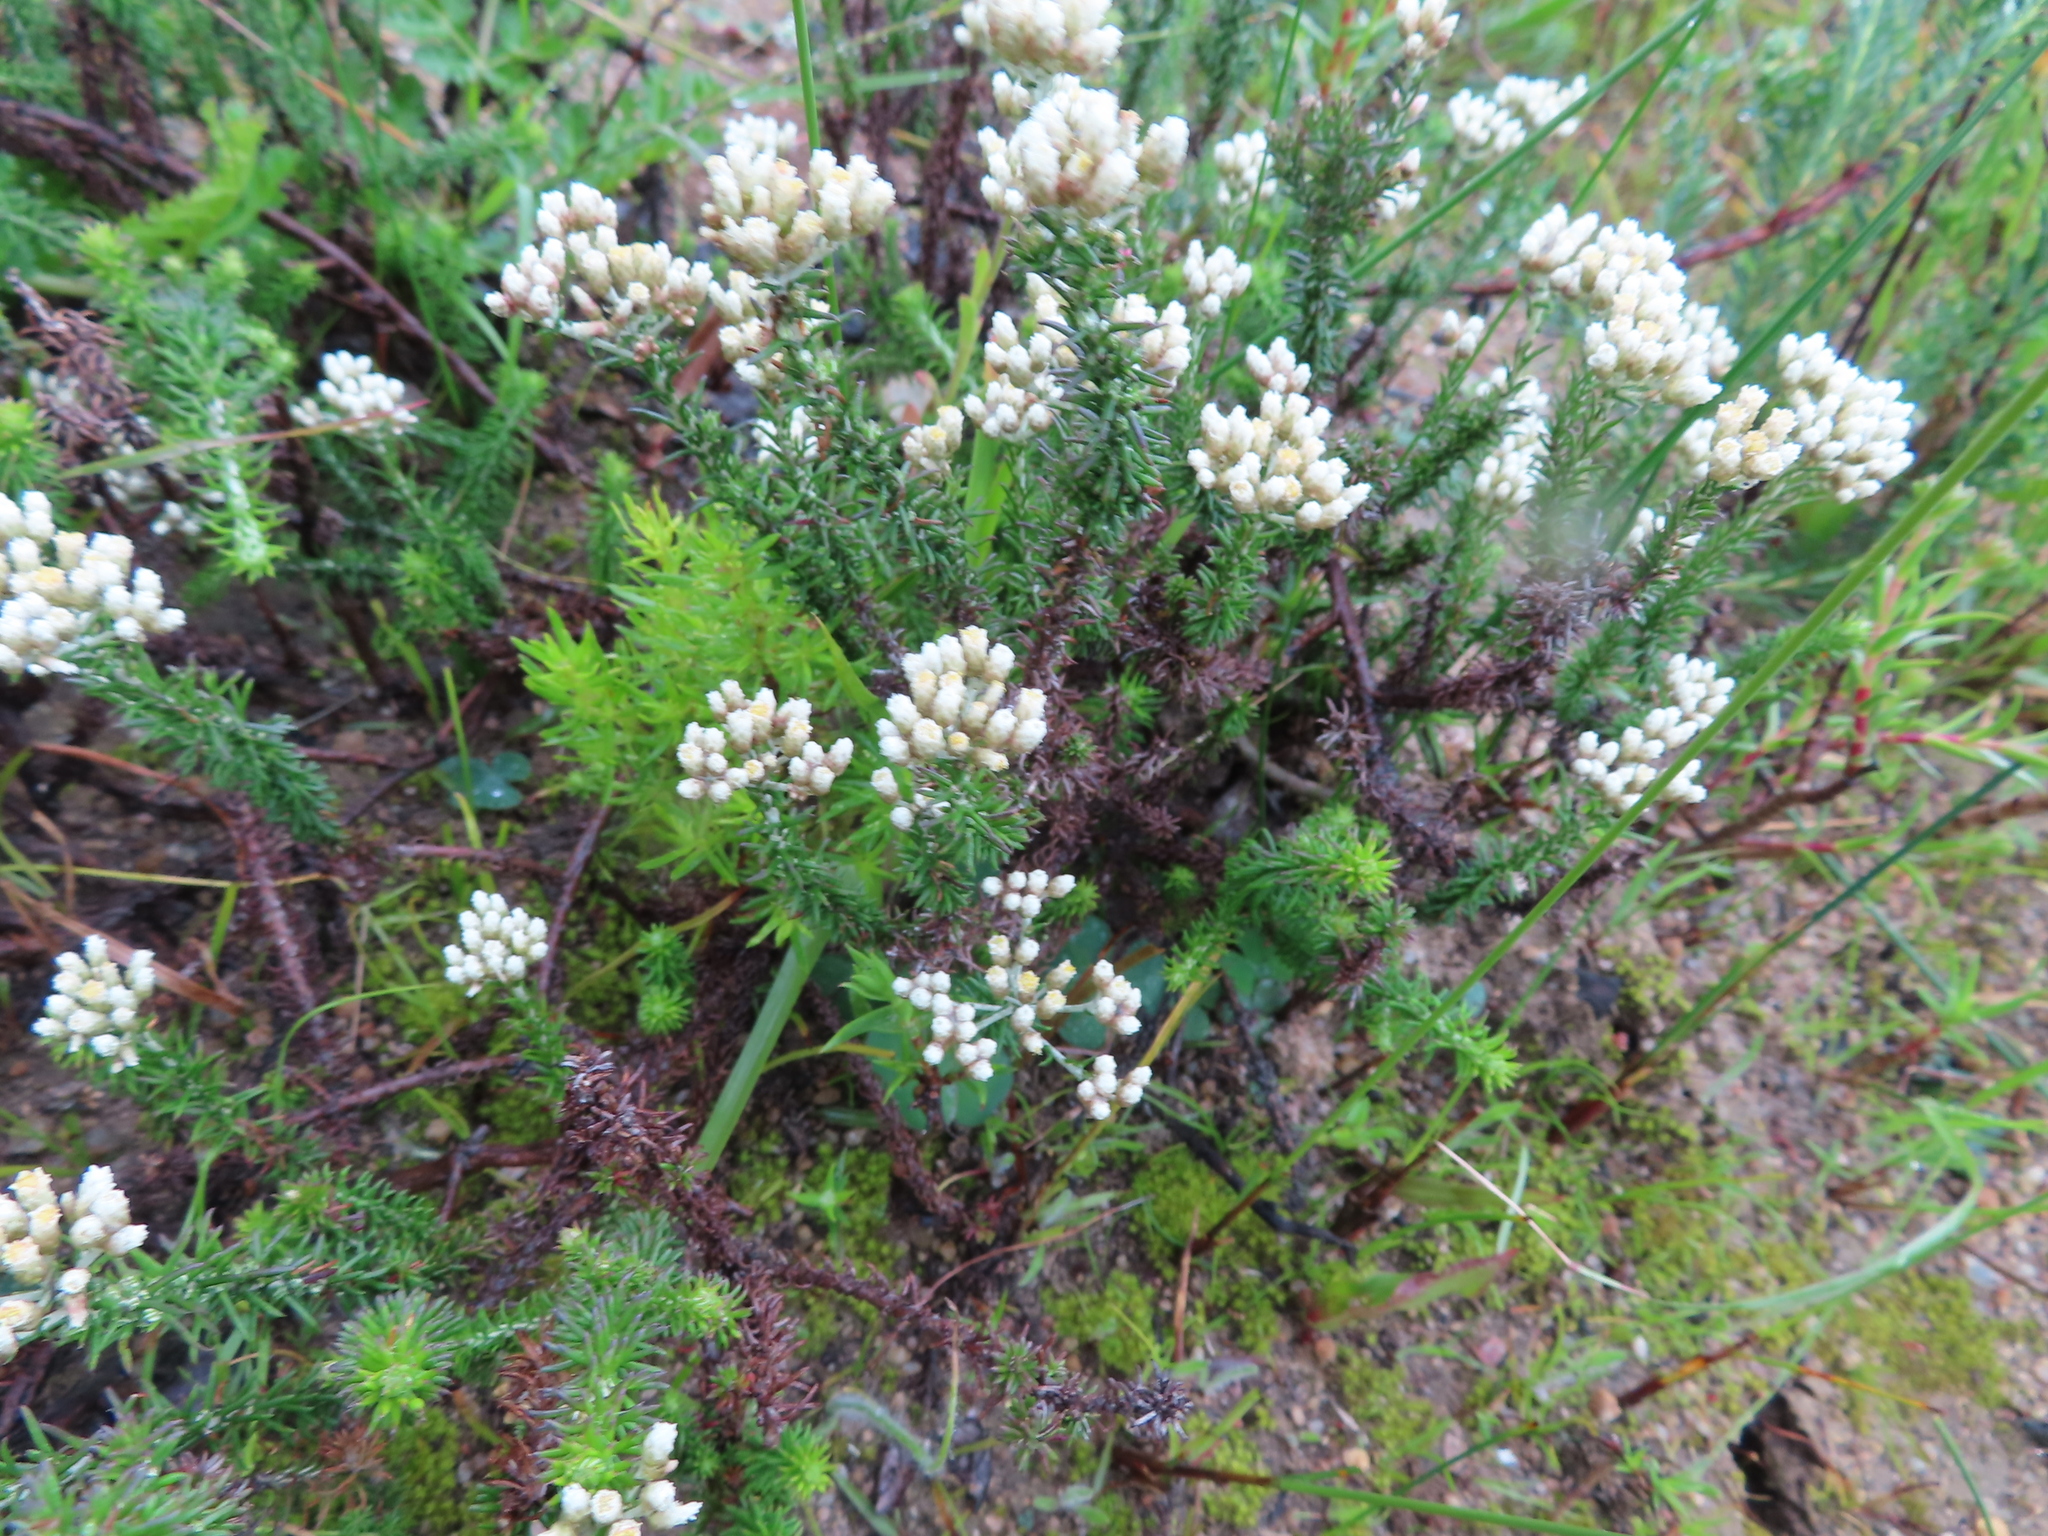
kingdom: Plantae
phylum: Tracheophyta
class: Magnoliopsida
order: Asterales
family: Asteraceae
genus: Helichrysum
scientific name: Helichrysum teretifolium
